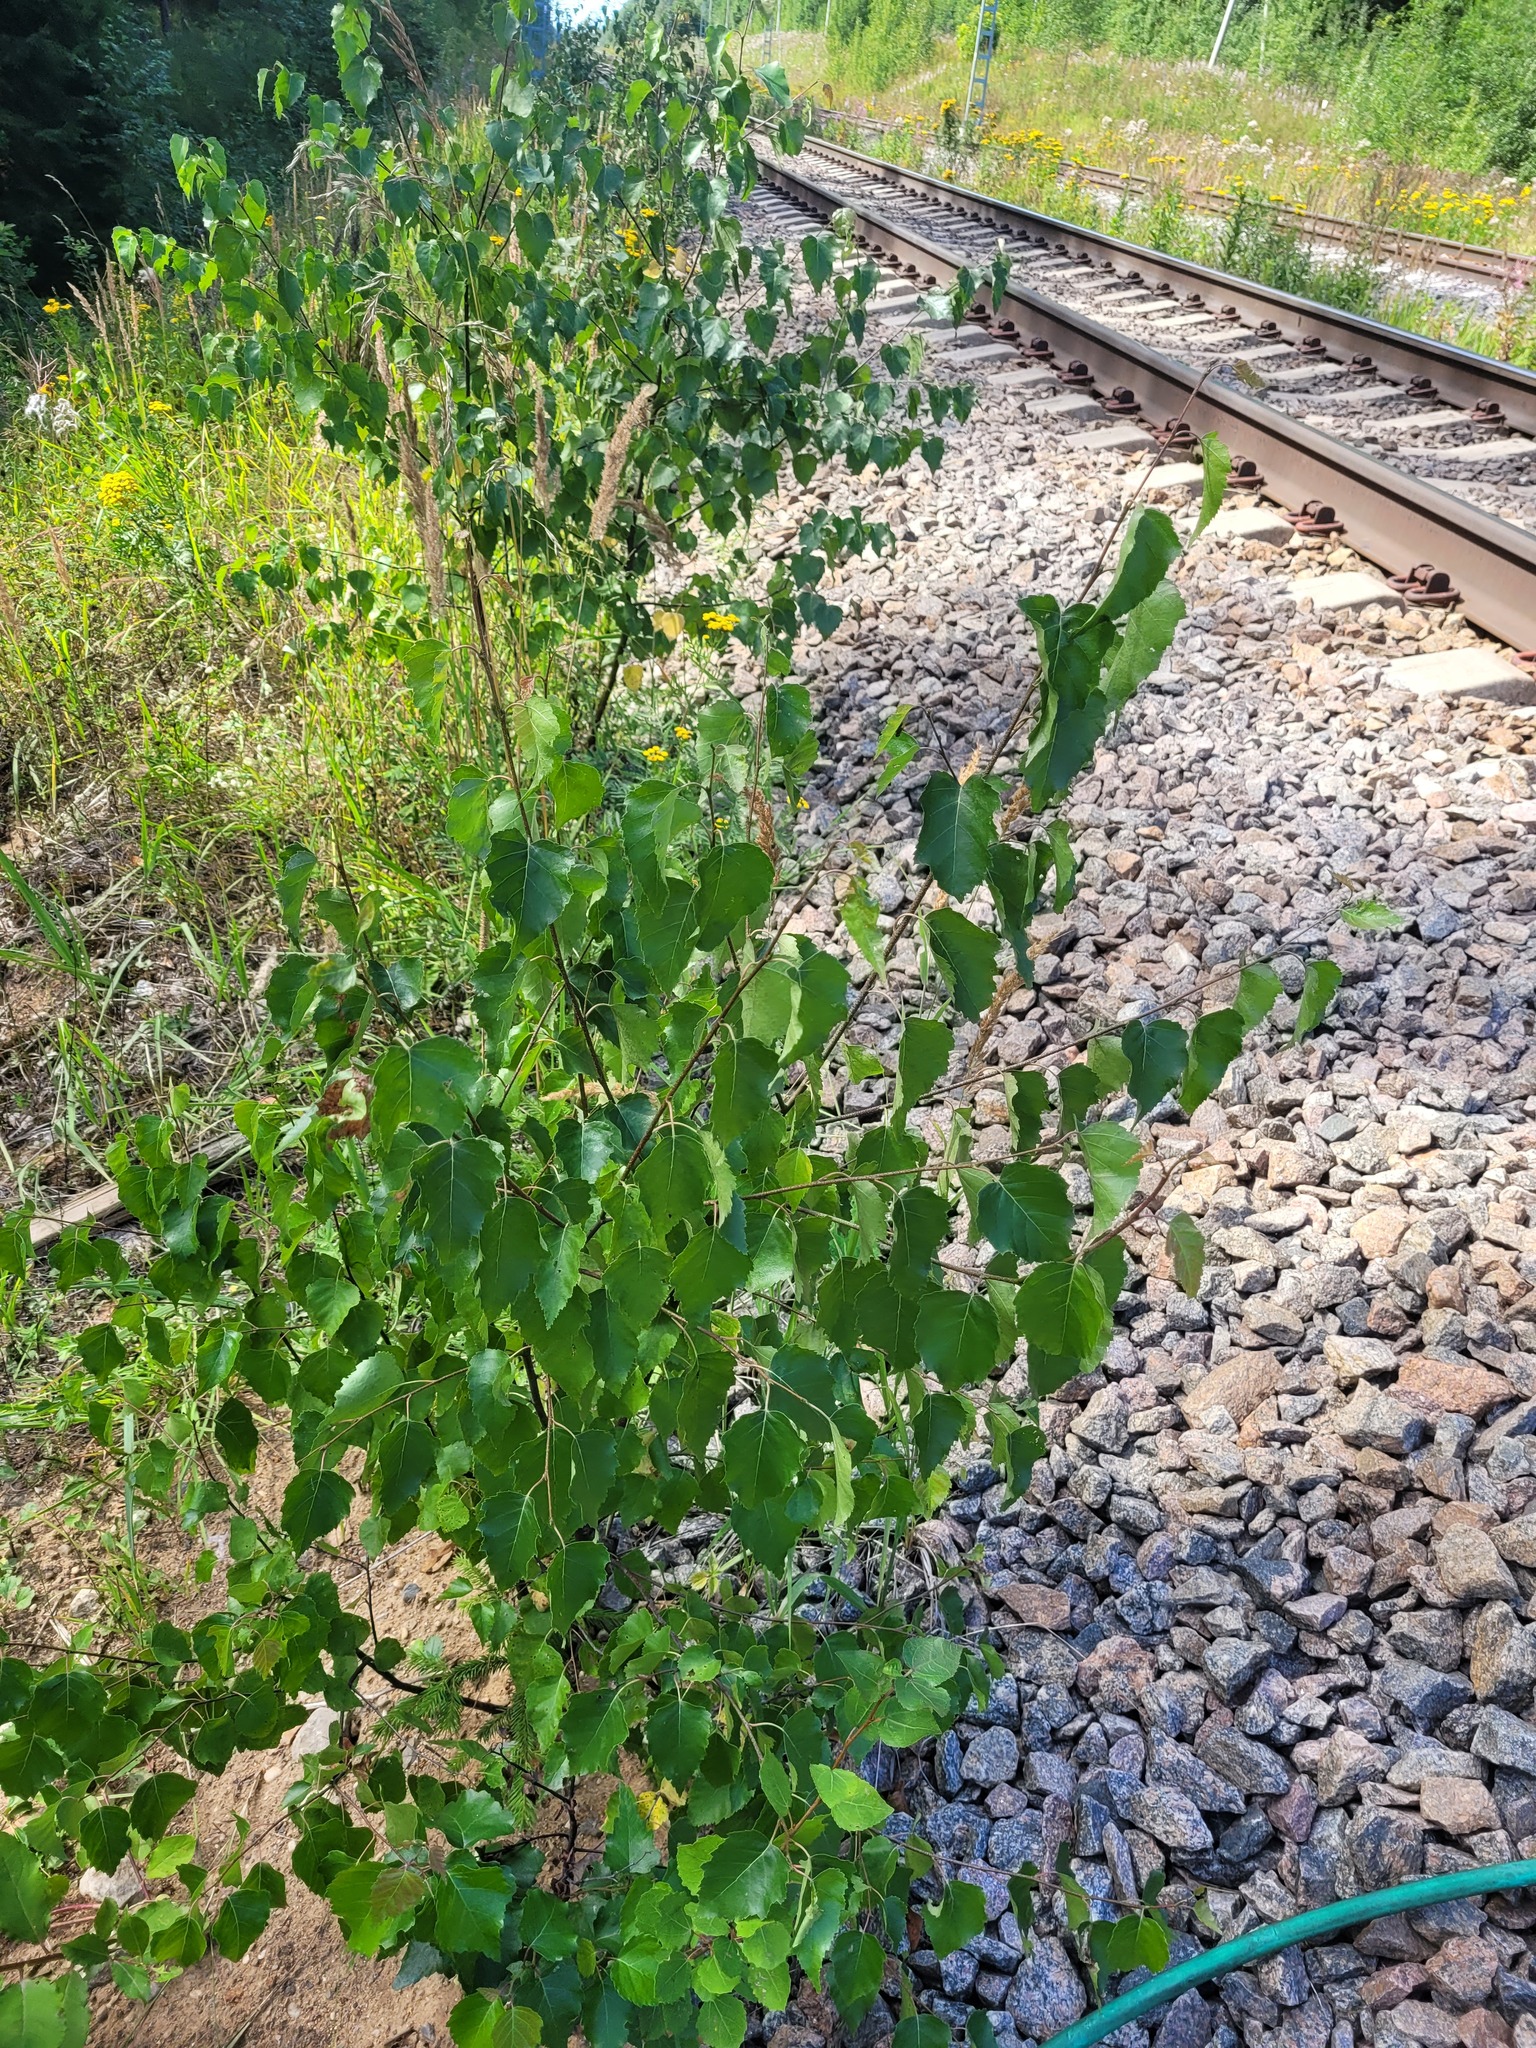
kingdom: Plantae
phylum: Tracheophyta
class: Magnoliopsida
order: Fagales
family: Betulaceae
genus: Betula
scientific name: Betula pendula
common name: Silver birch
